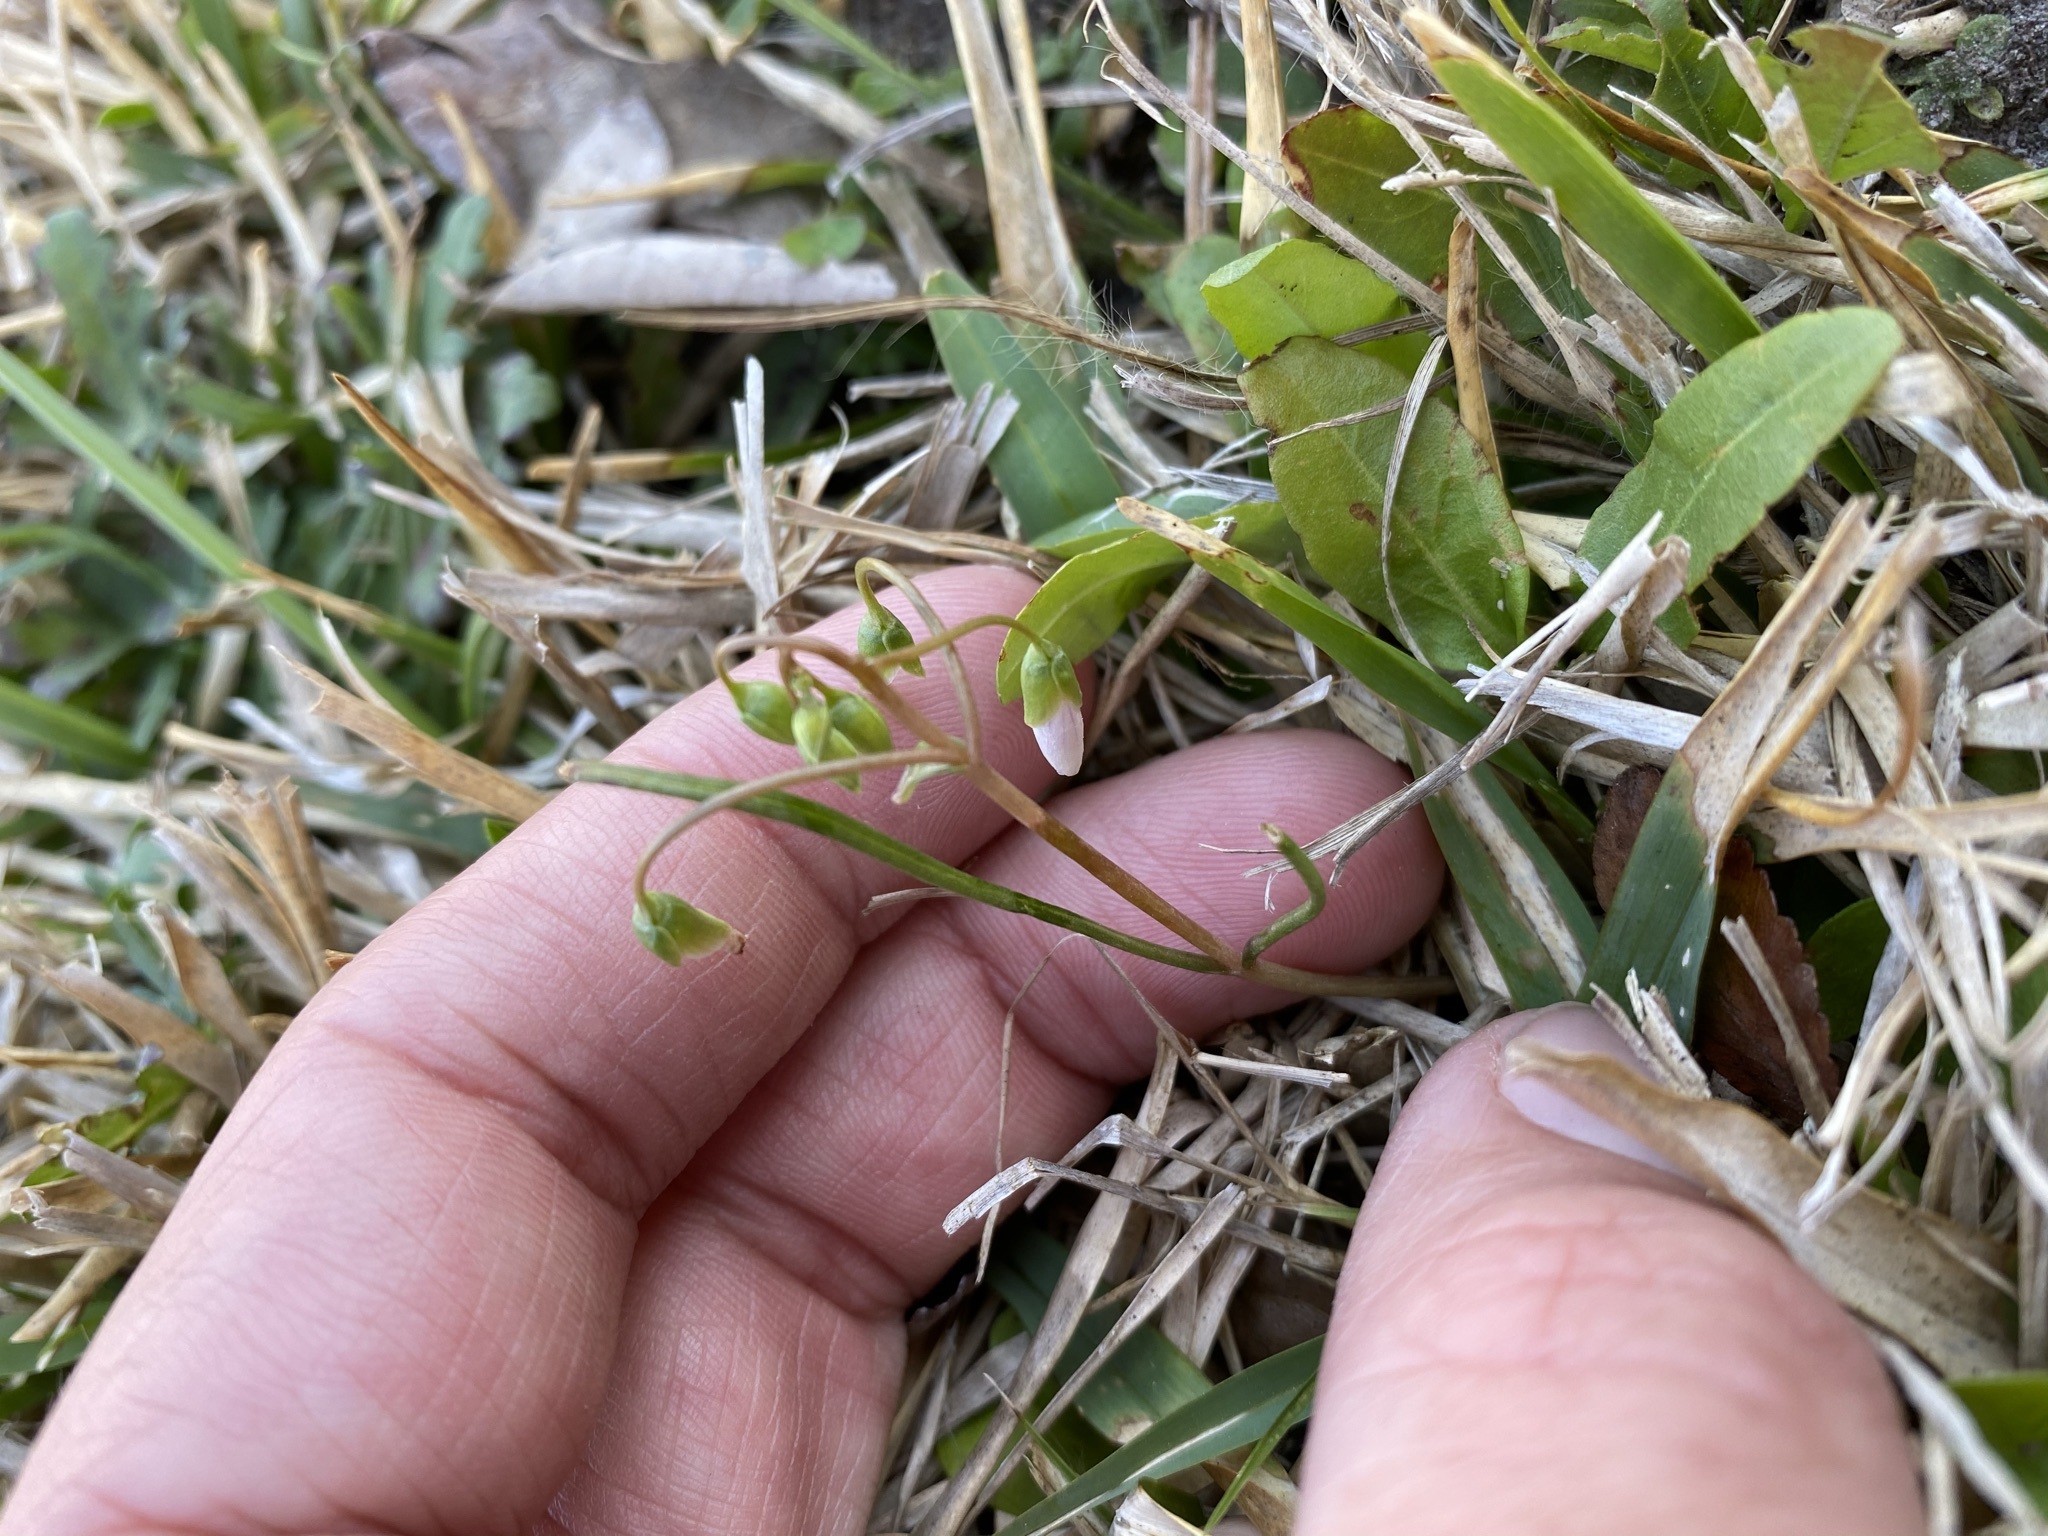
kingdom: Plantae
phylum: Tracheophyta
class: Magnoliopsida
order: Caryophyllales
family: Montiaceae
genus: Claytonia
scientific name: Claytonia virginica
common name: Virginia springbeauty
